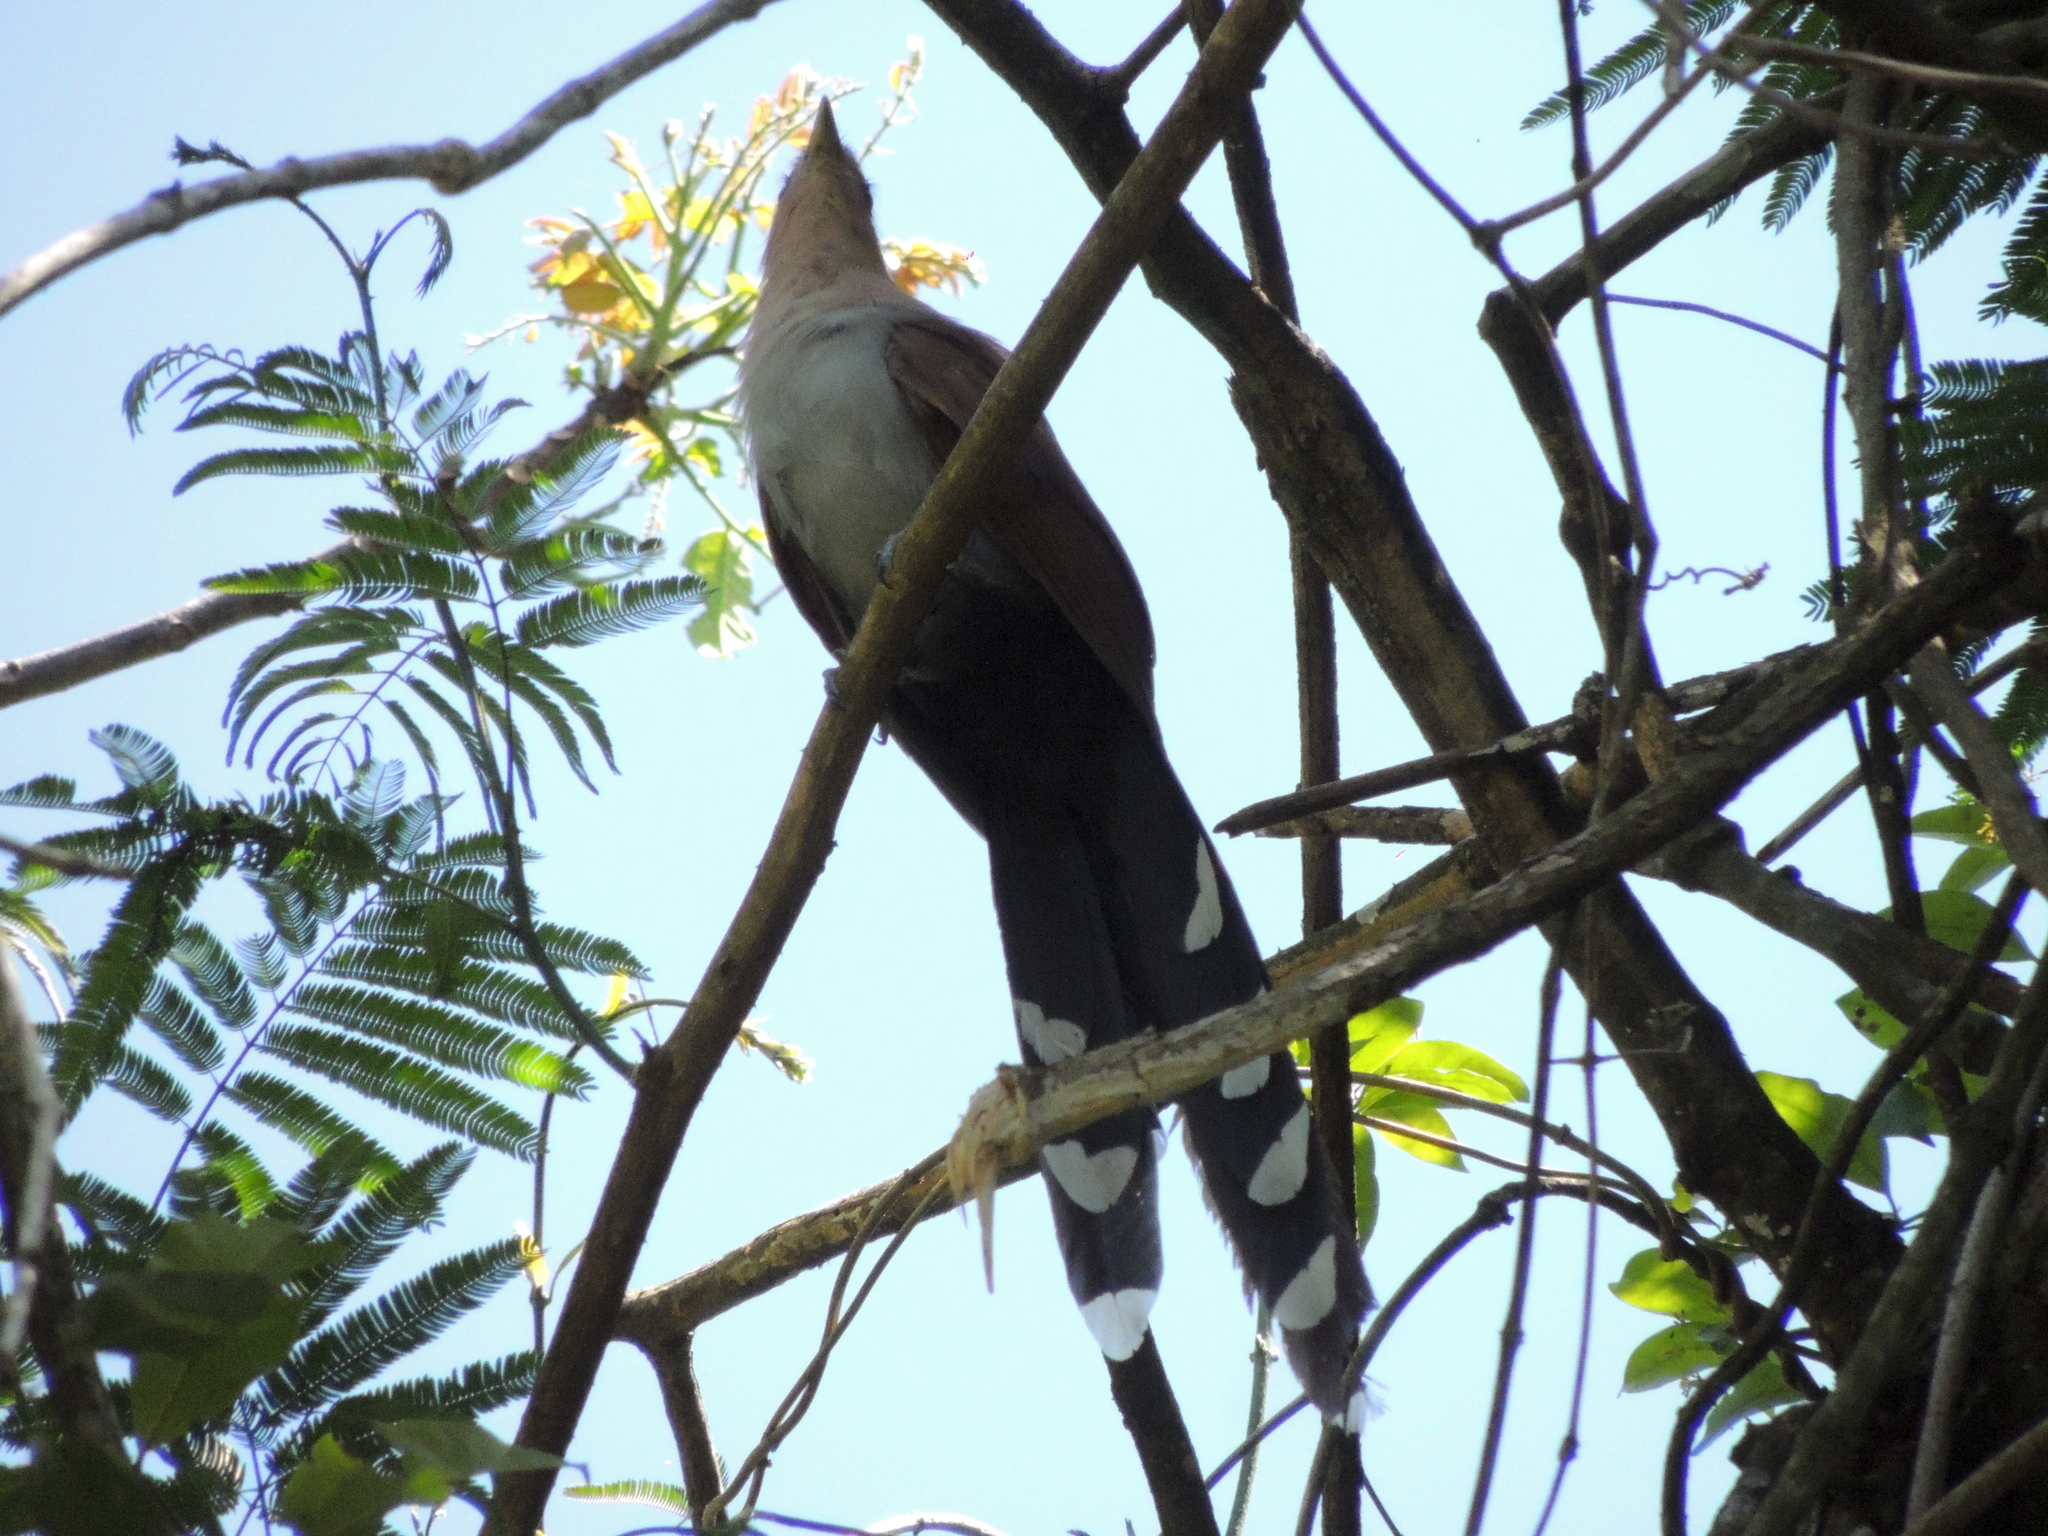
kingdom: Animalia
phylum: Chordata
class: Aves
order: Cuculiformes
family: Cuculidae
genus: Piaya
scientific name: Piaya cayana
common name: Squirrel cuckoo
